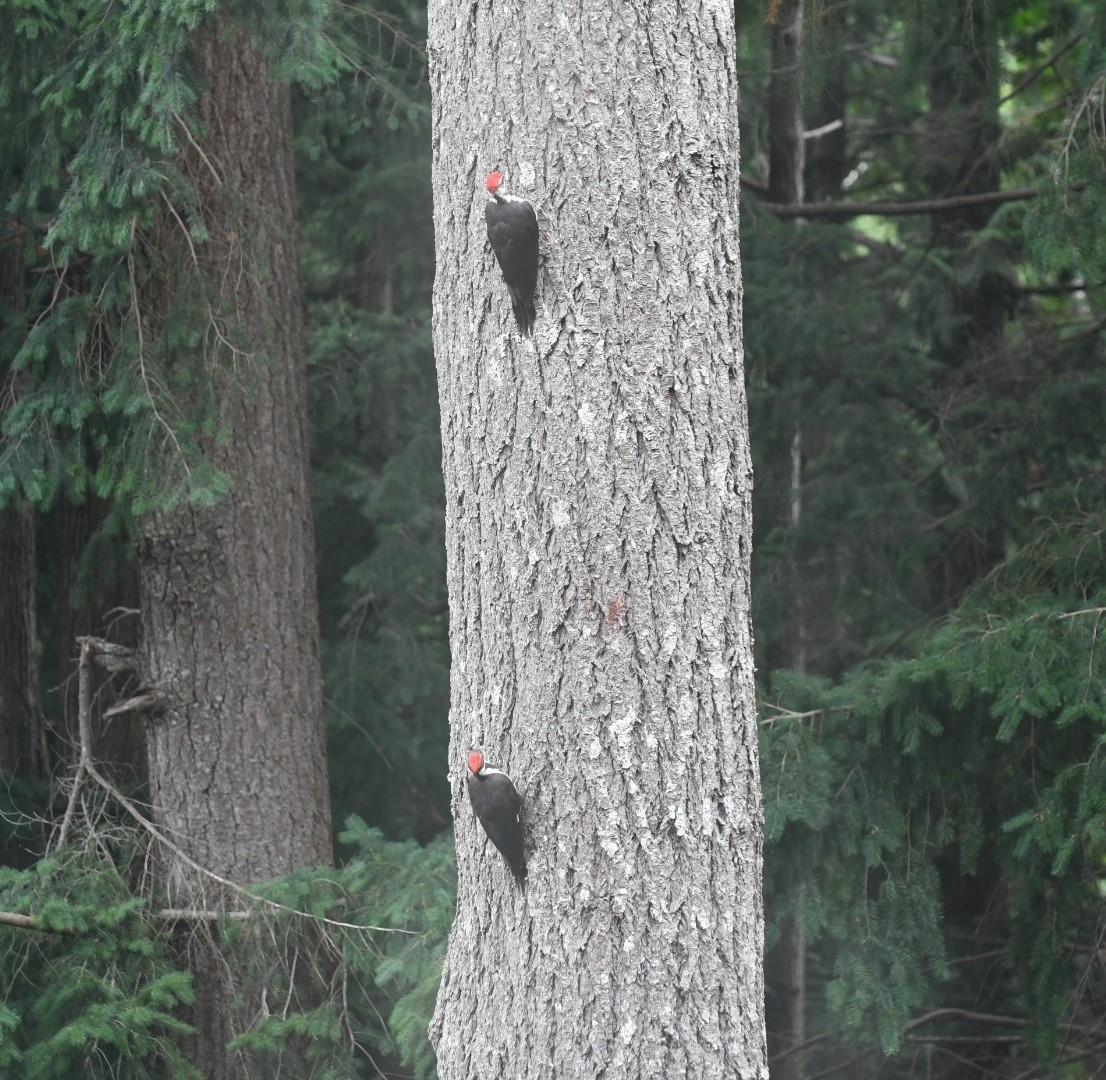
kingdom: Animalia
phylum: Chordata
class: Aves
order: Piciformes
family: Picidae
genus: Dryocopus
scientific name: Dryocopus pileatus
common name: Pileated woodpecker
